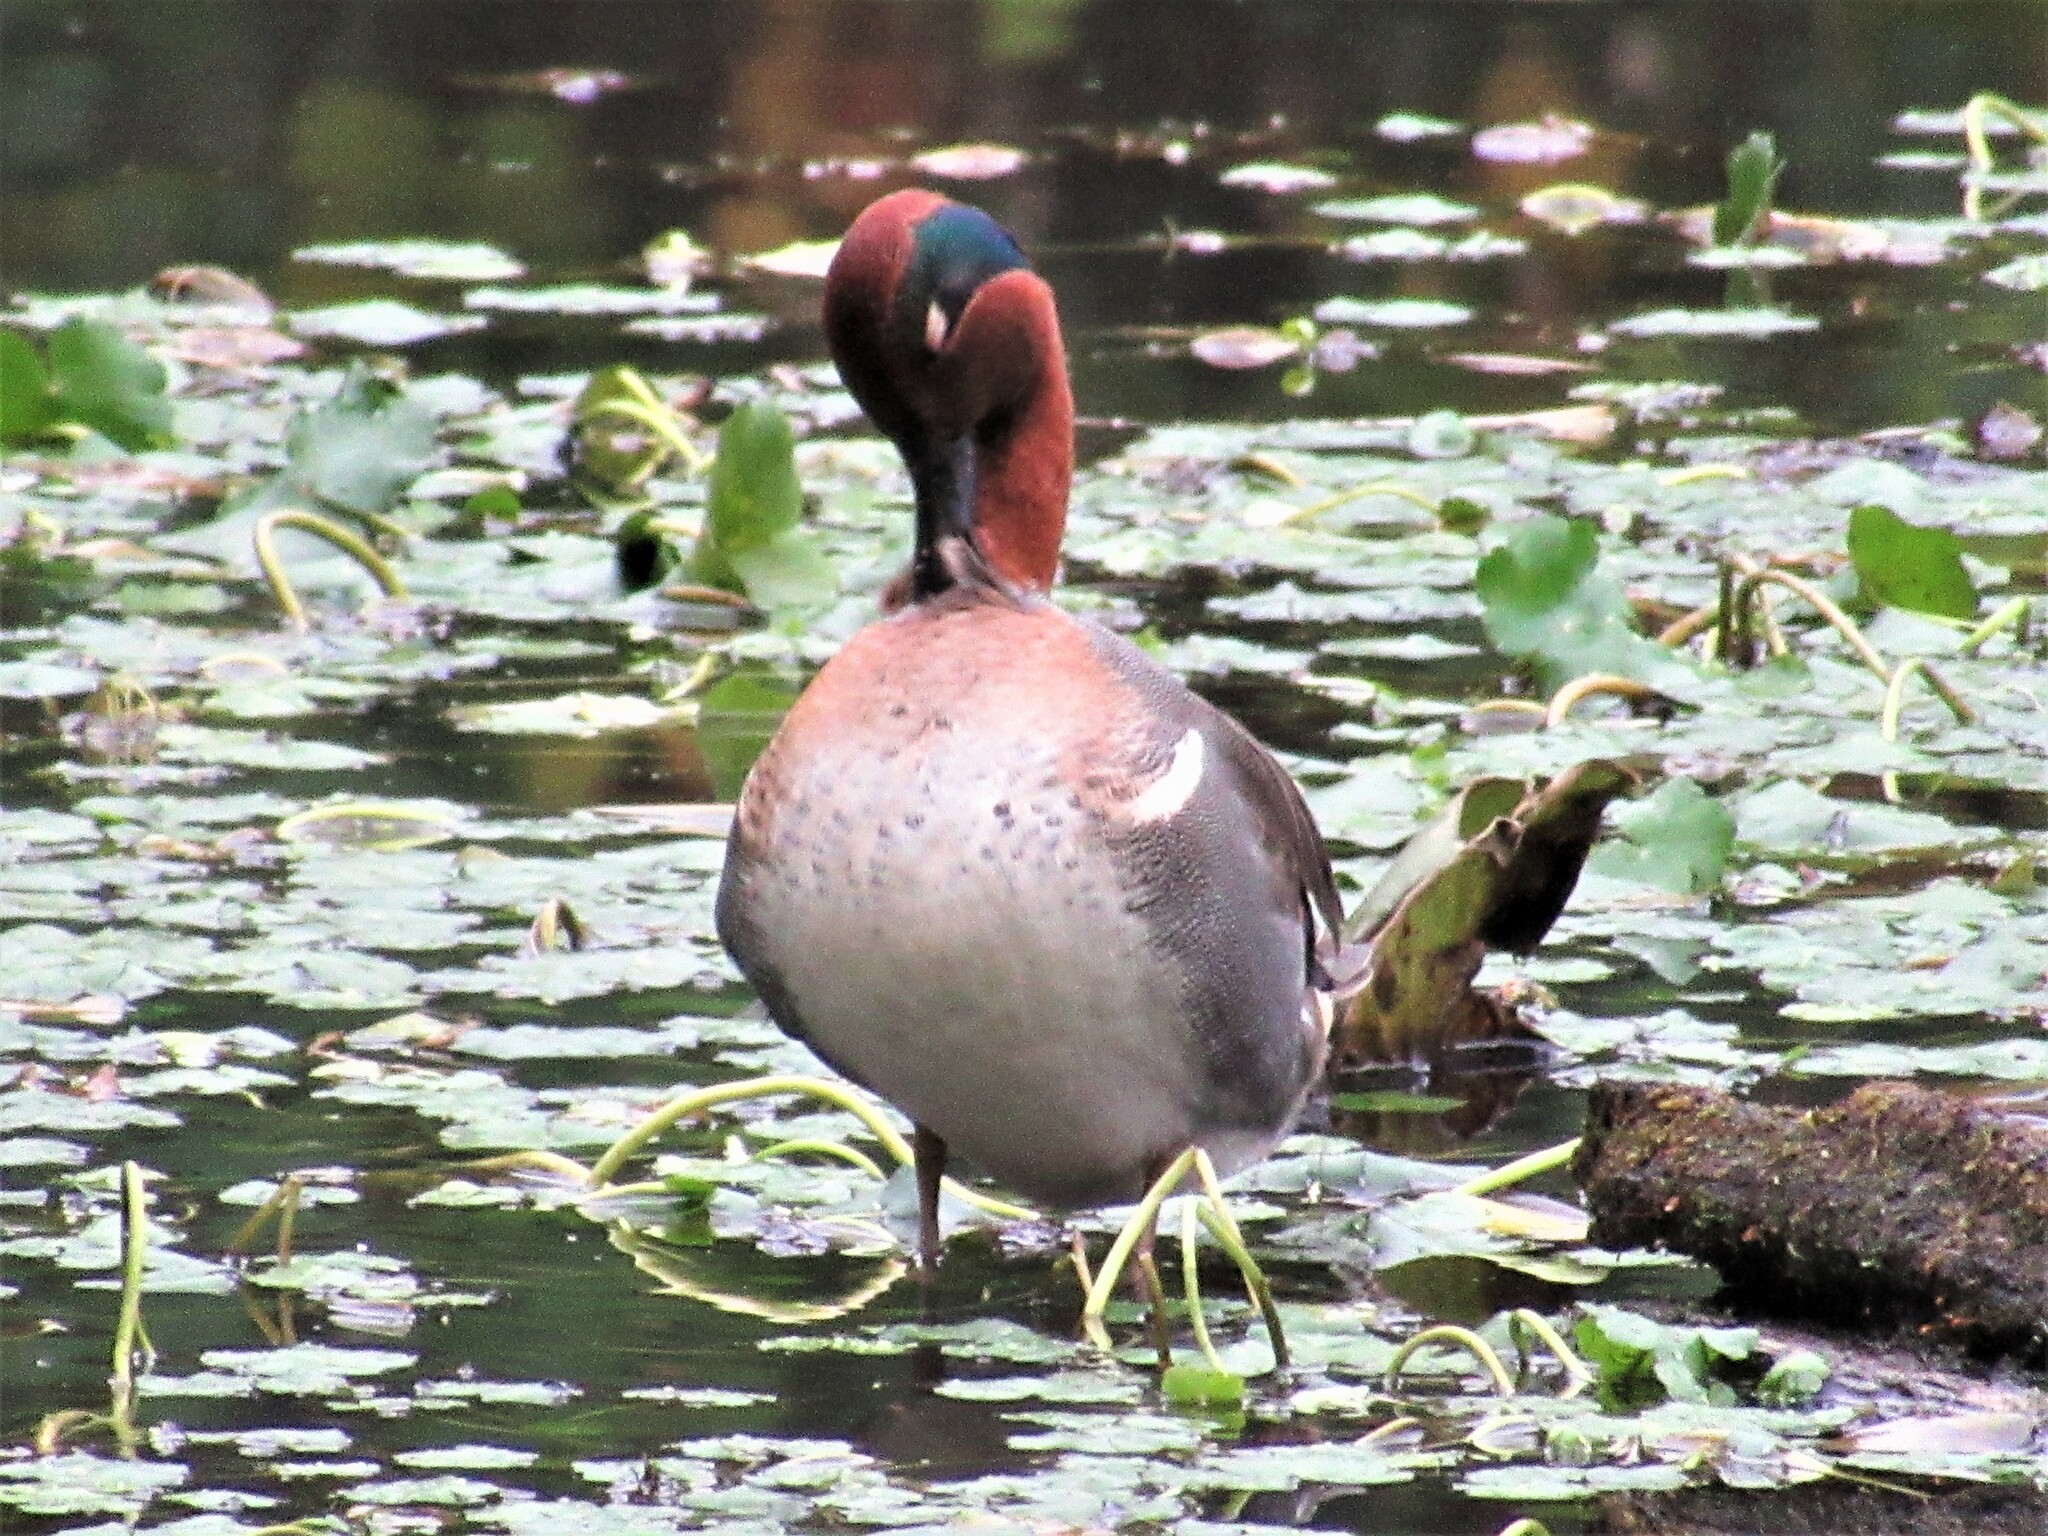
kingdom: Animalia
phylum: Chordata
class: Aves
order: Anseriformes
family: Anatidae
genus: Anas
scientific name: Anas crecca
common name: Eurasian teal
